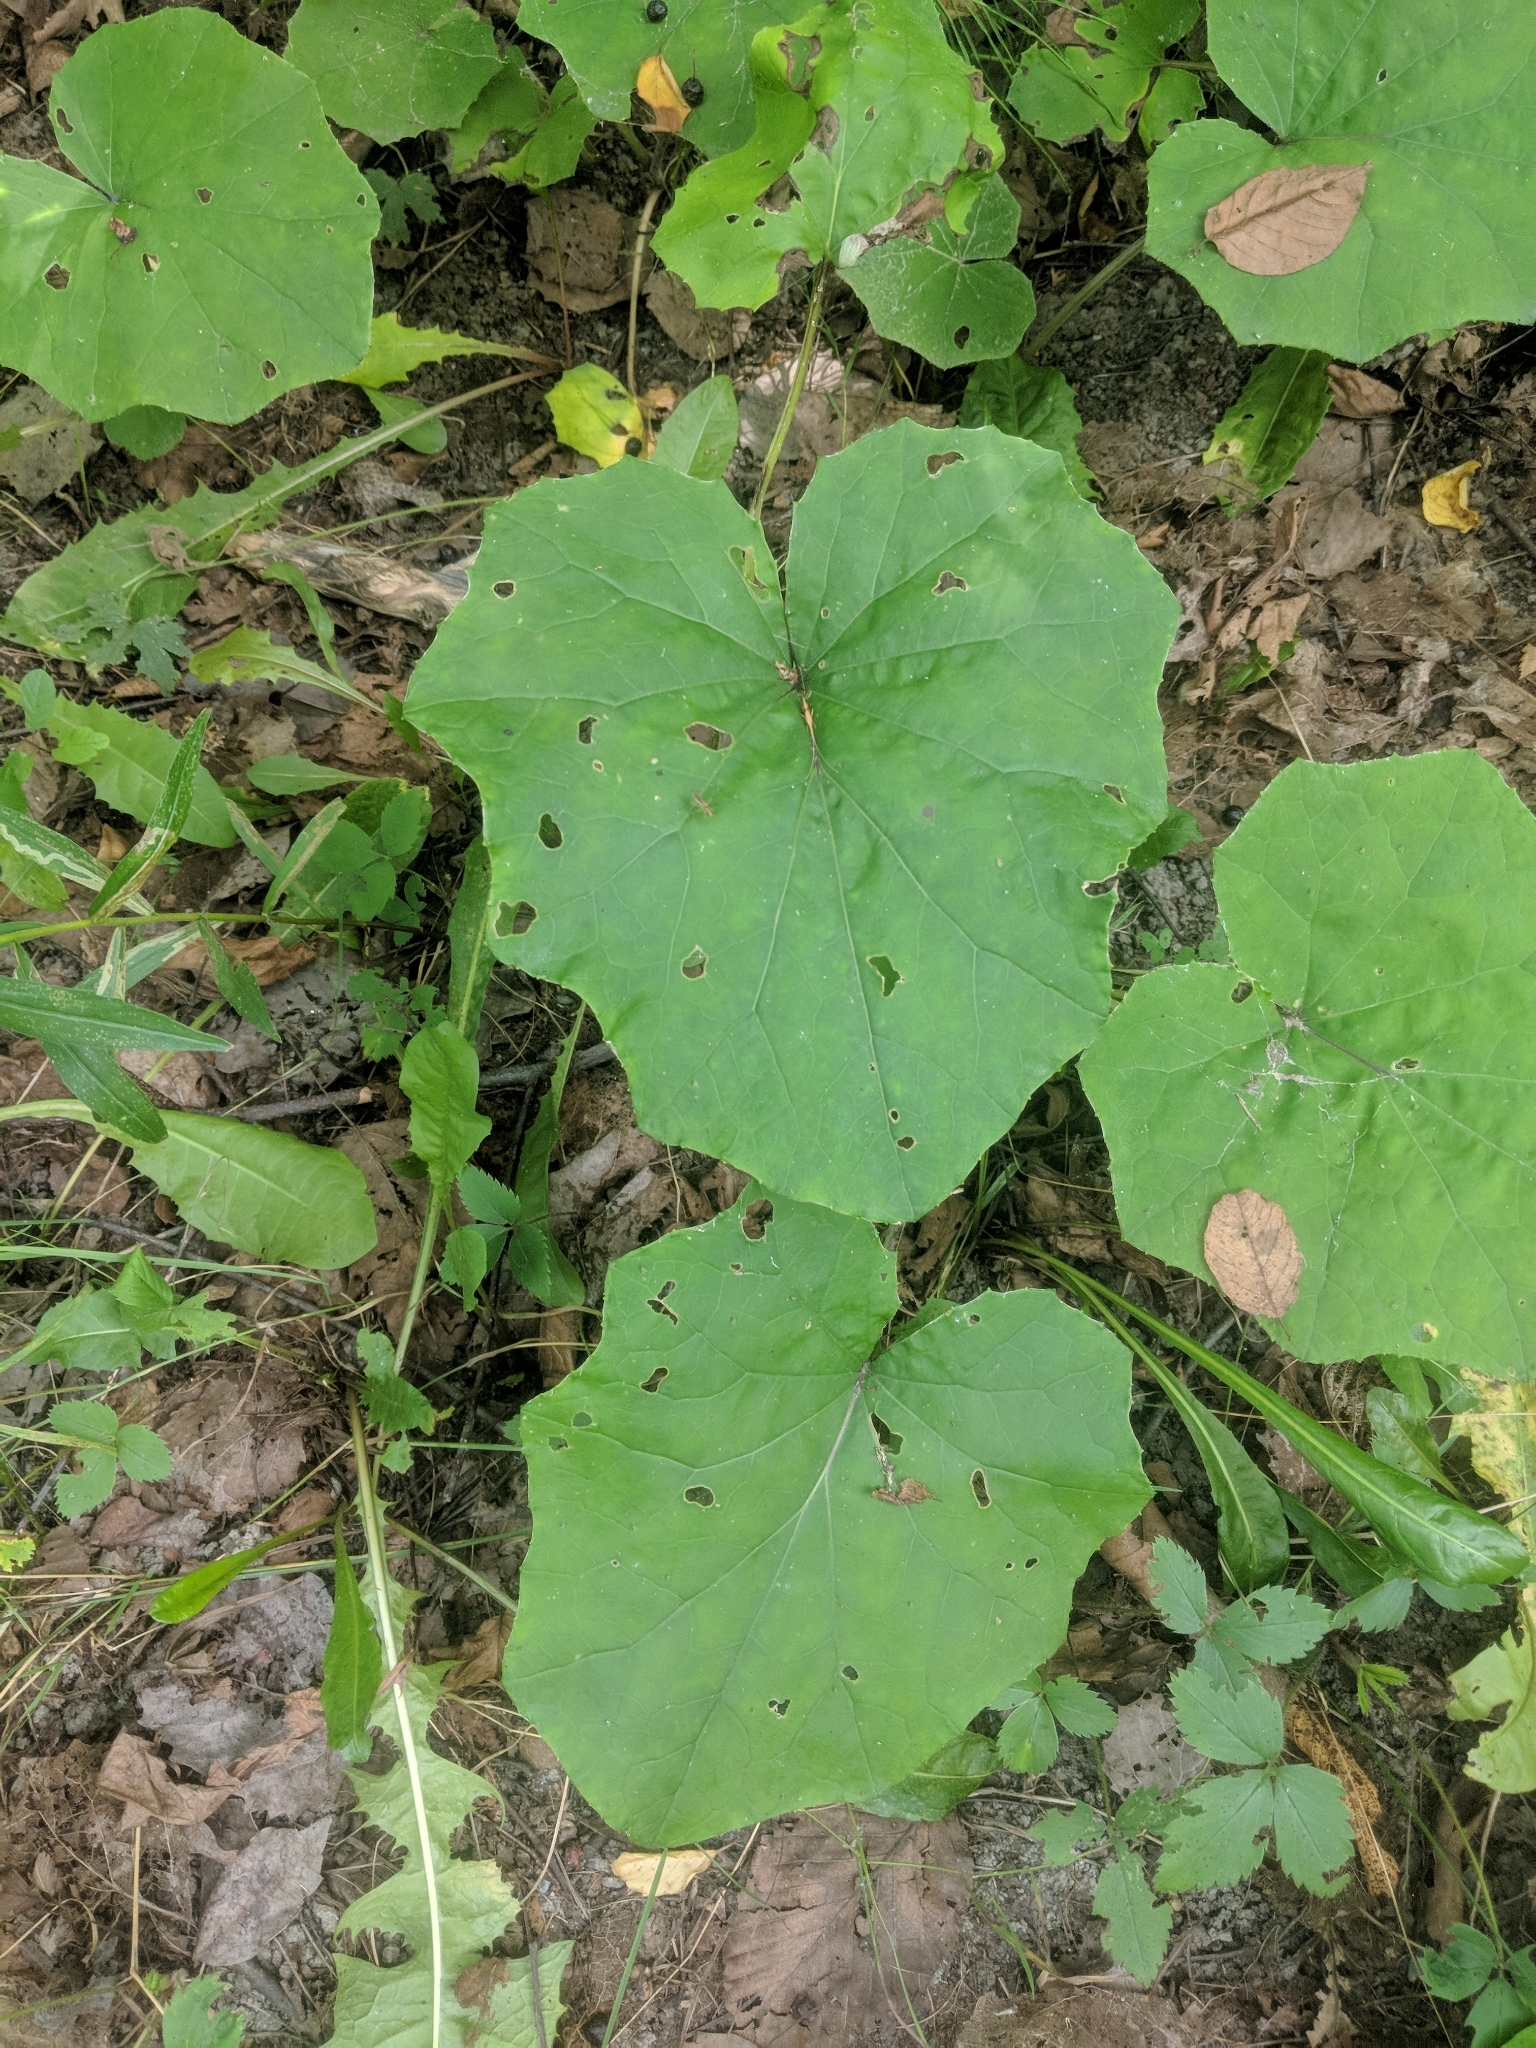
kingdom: Plantae
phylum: Tracheophyta
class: Magnoliopsida
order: Asterales
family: Asteraceae
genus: Tussilago
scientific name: Tussilago farfara
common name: Coltsfoot
